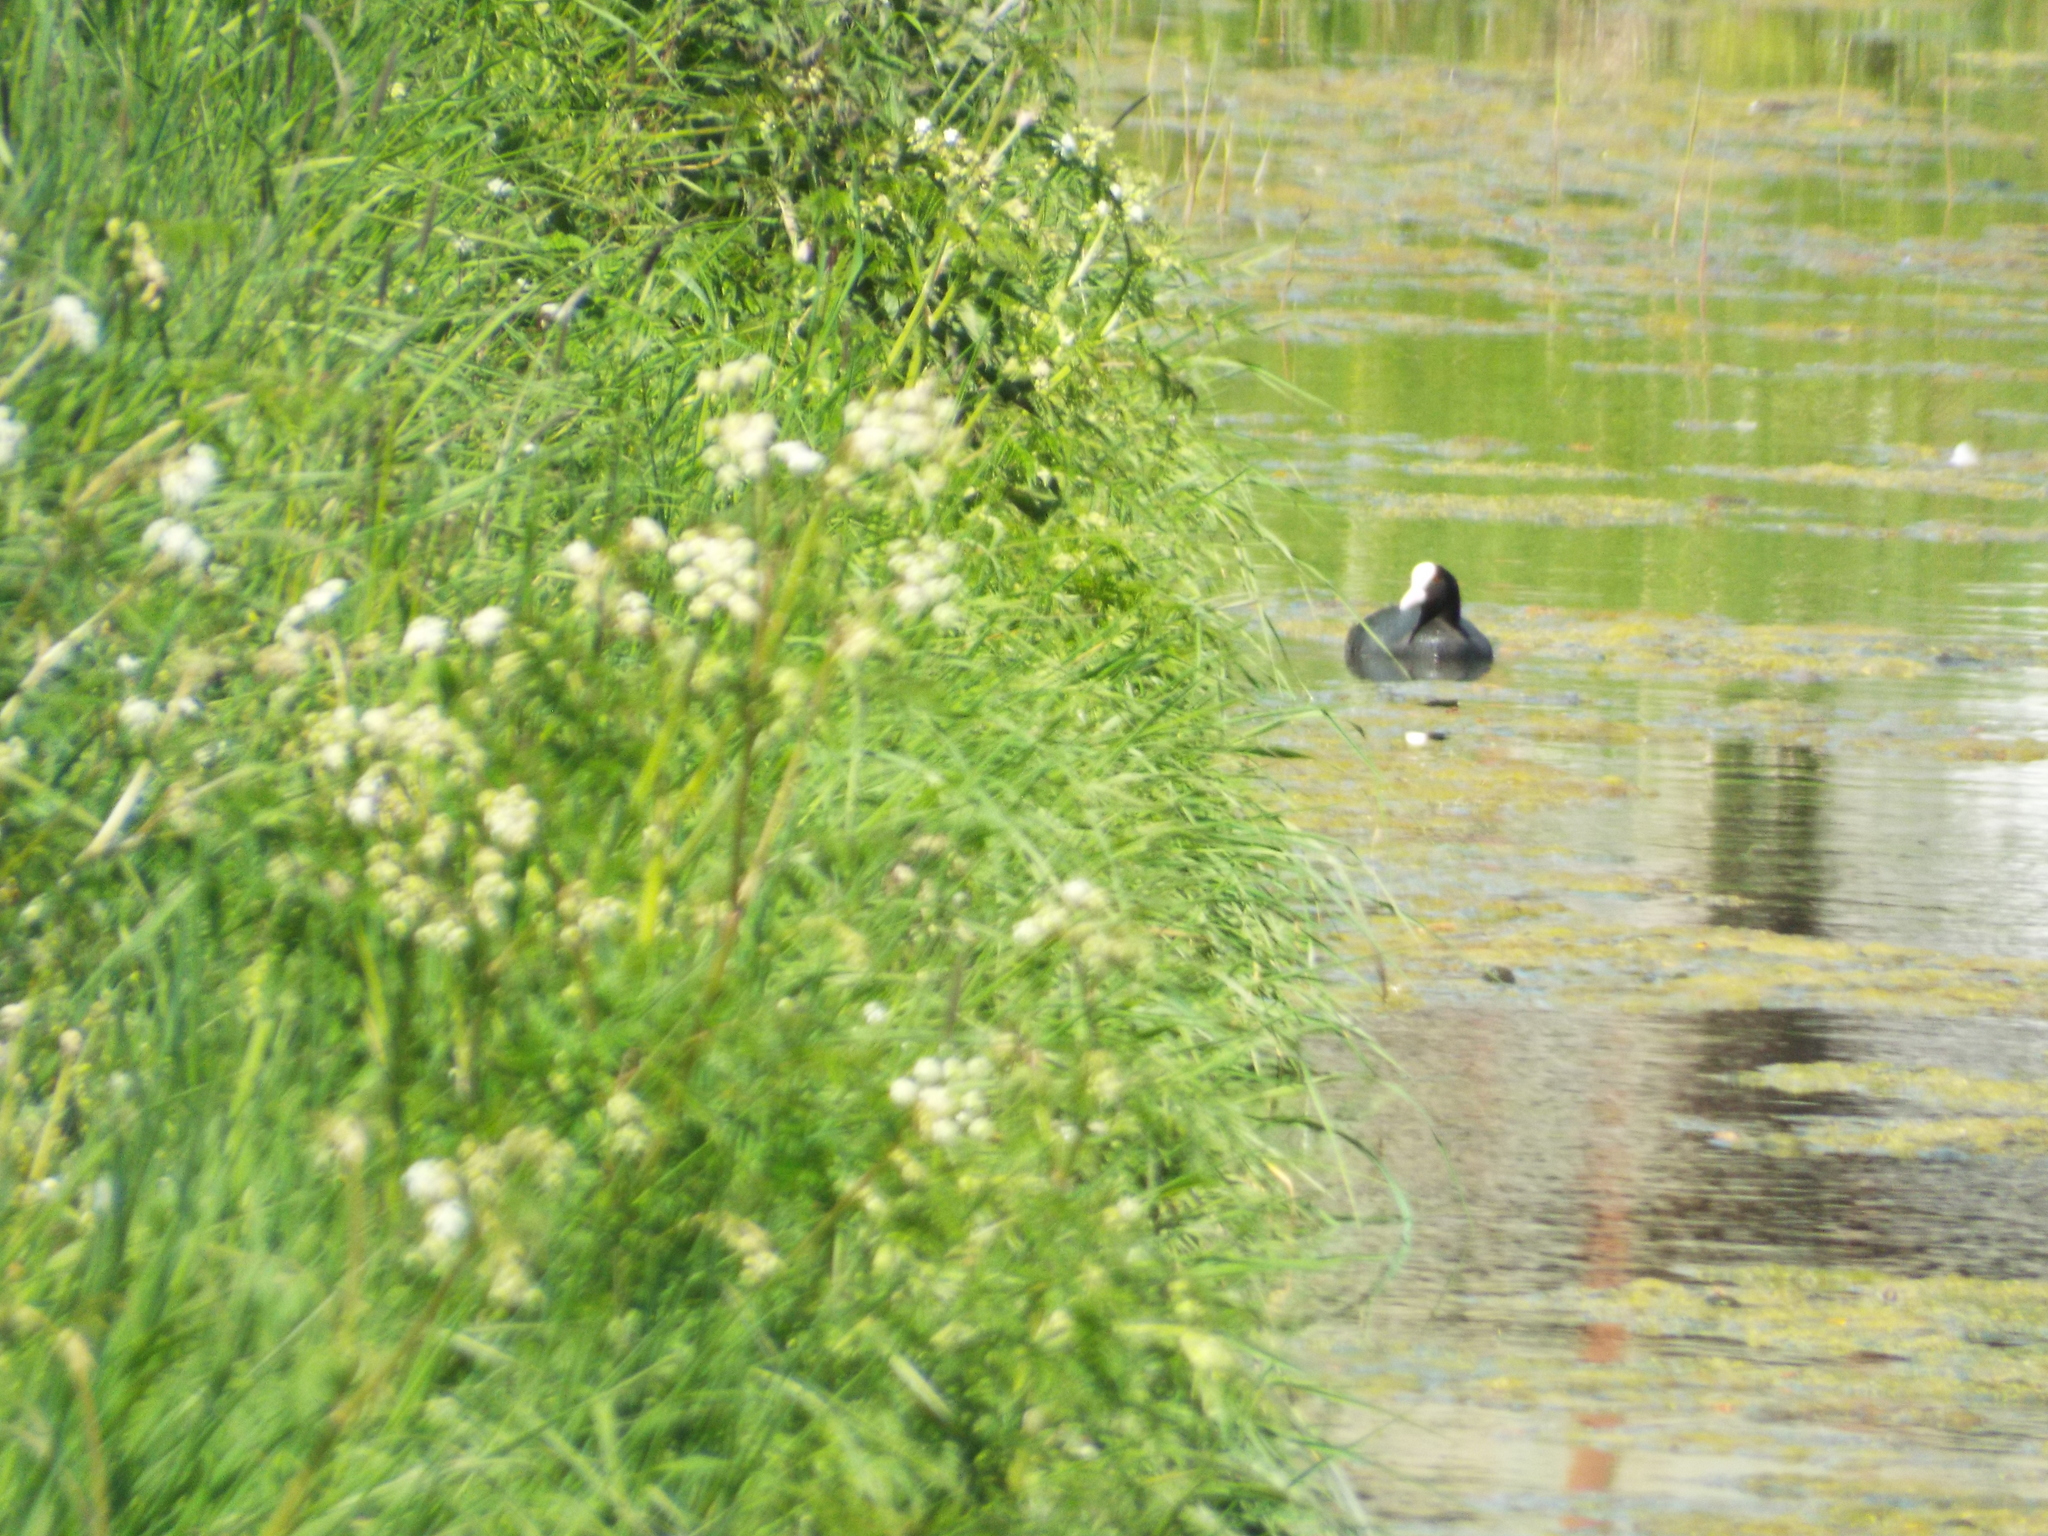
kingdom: Animalia
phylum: Chordata
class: Aves
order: Gruiformes
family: Rallidae
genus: Fulica
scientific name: Fulica atra
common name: Eurasian coot
